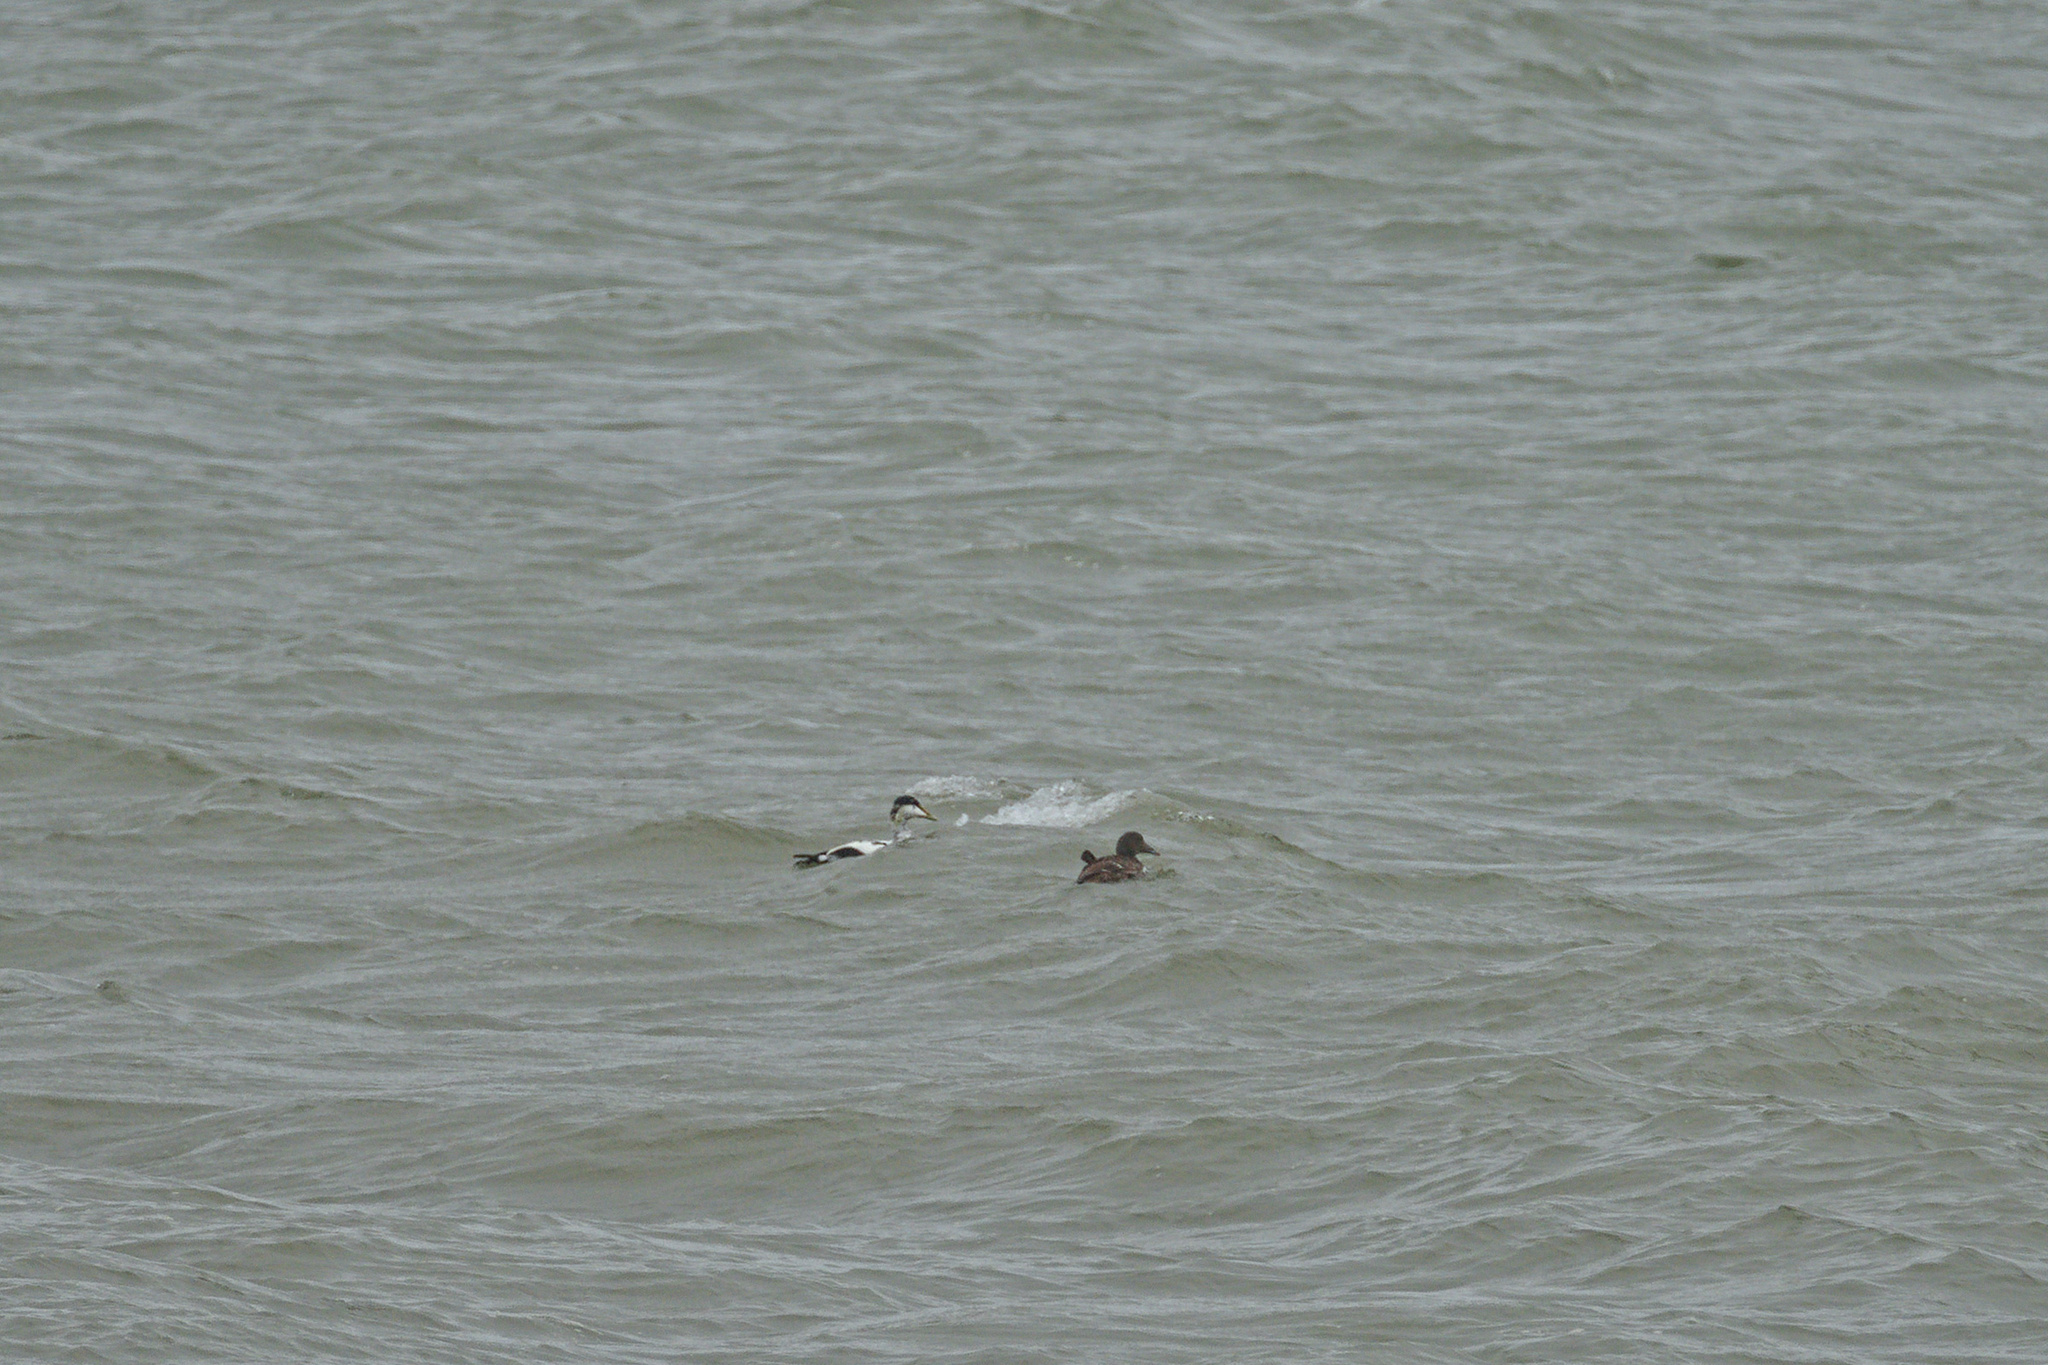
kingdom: Animalia
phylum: Chordata
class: Aves
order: Anseriformes
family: Anatidae
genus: Somateria
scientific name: Somateria mollissima
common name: Common eider
